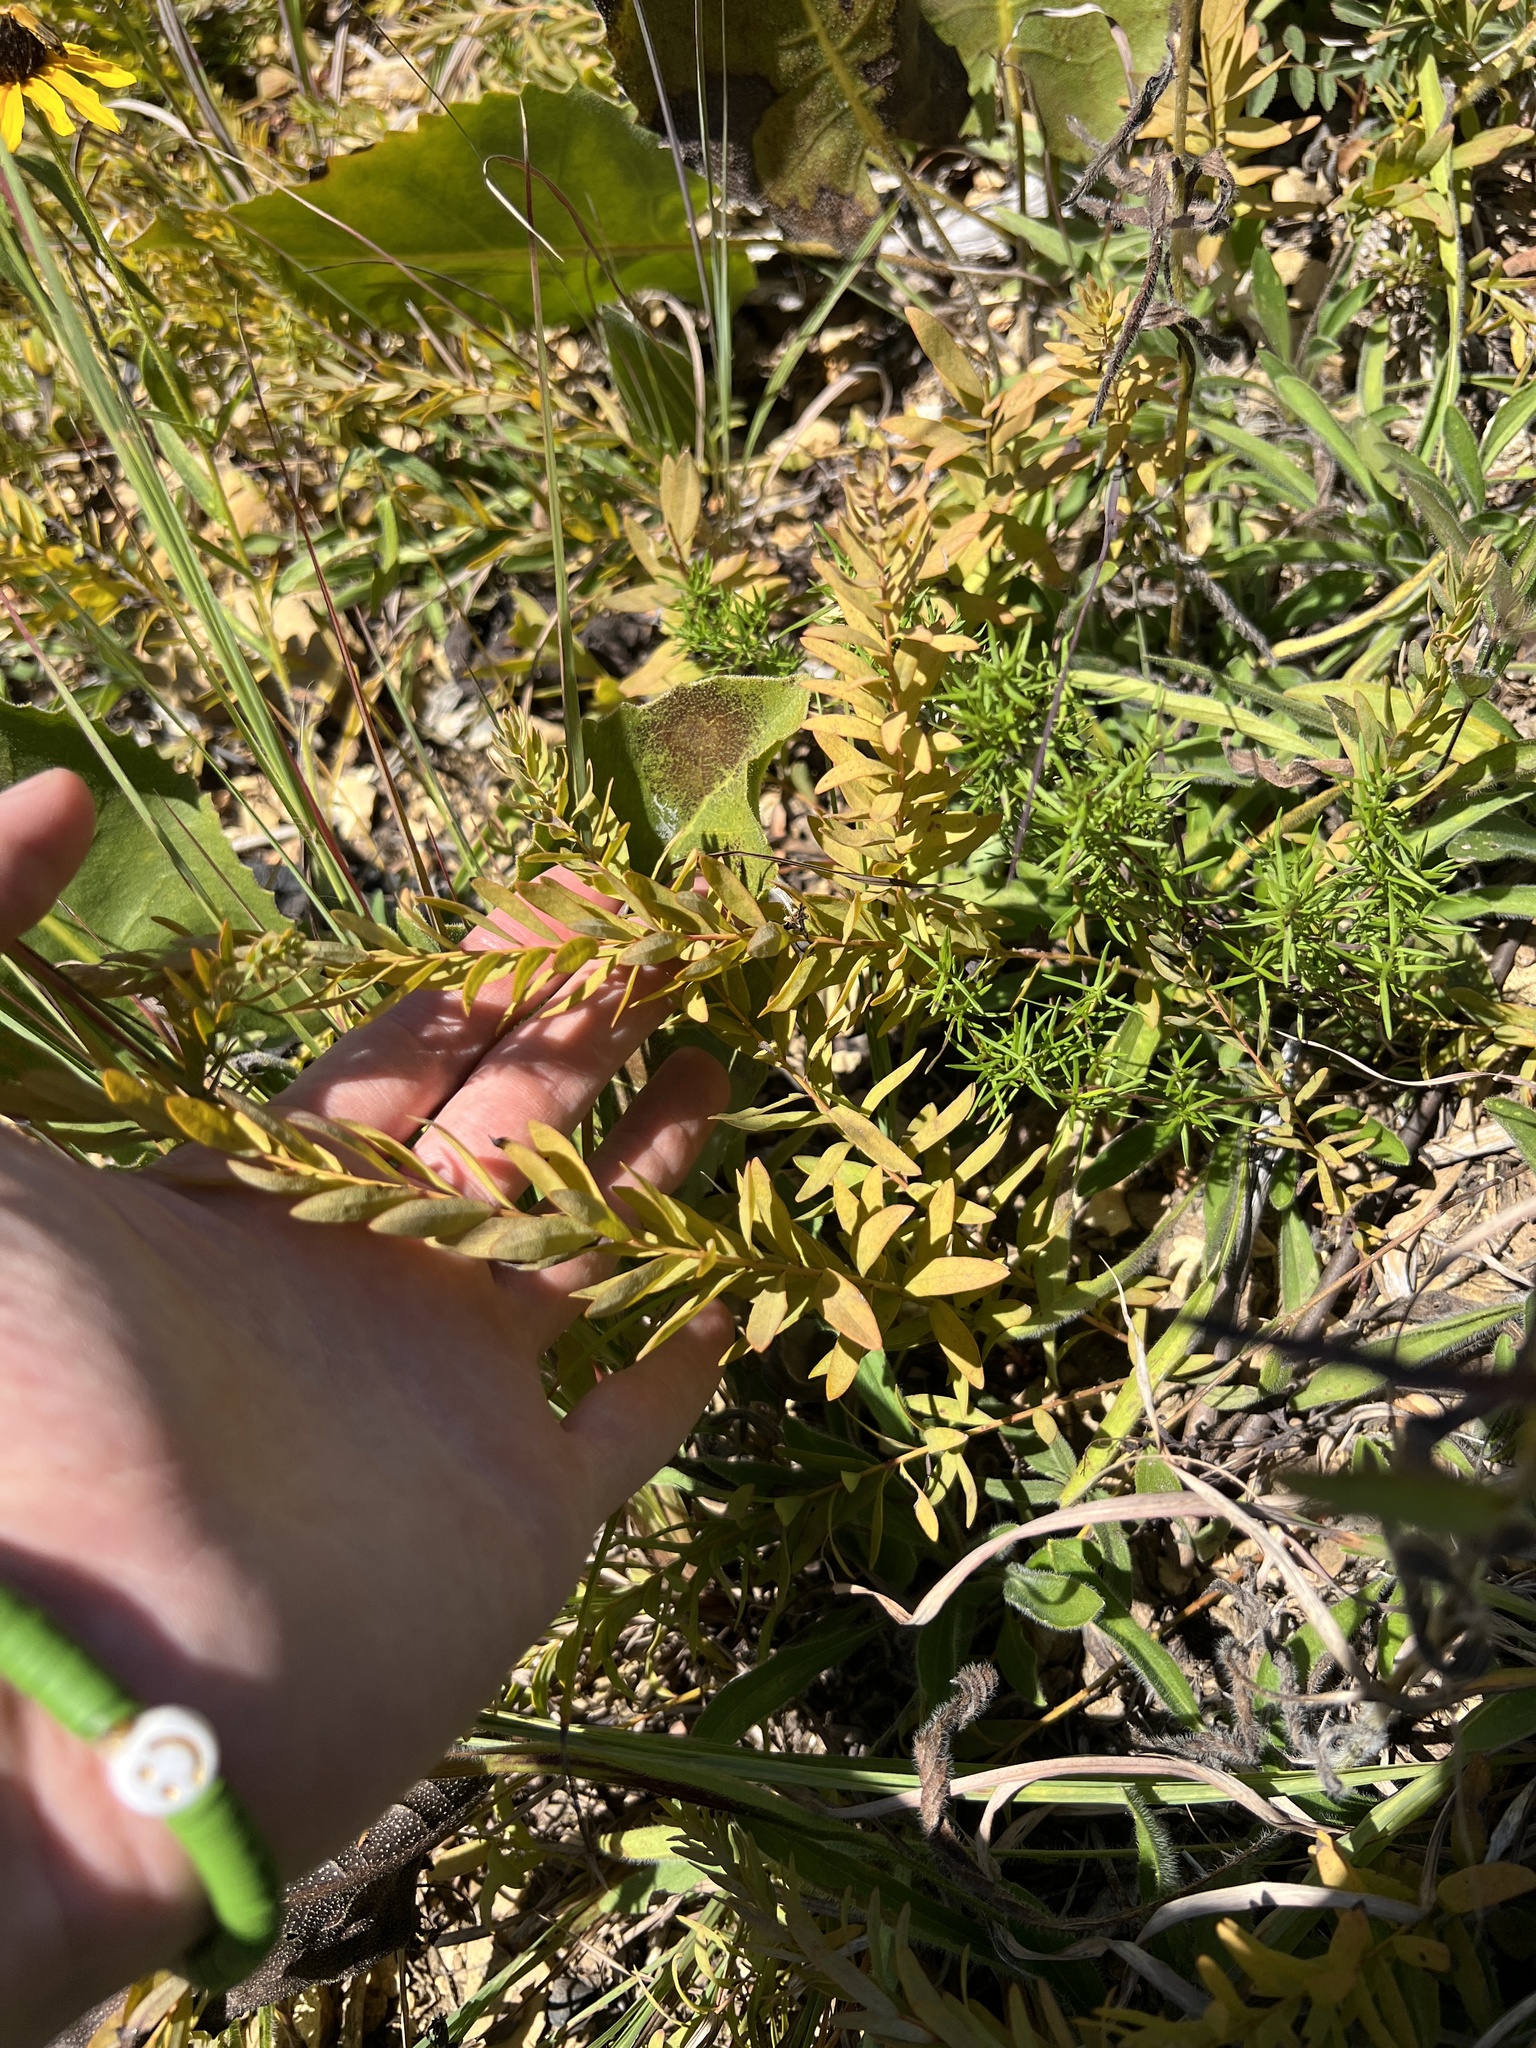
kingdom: Plantae
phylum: Tracheophyta
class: Magnoliopsida
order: Santalales
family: Comandraceae
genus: Comandra
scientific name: Comandra umbellata
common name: Bastard toadflax
